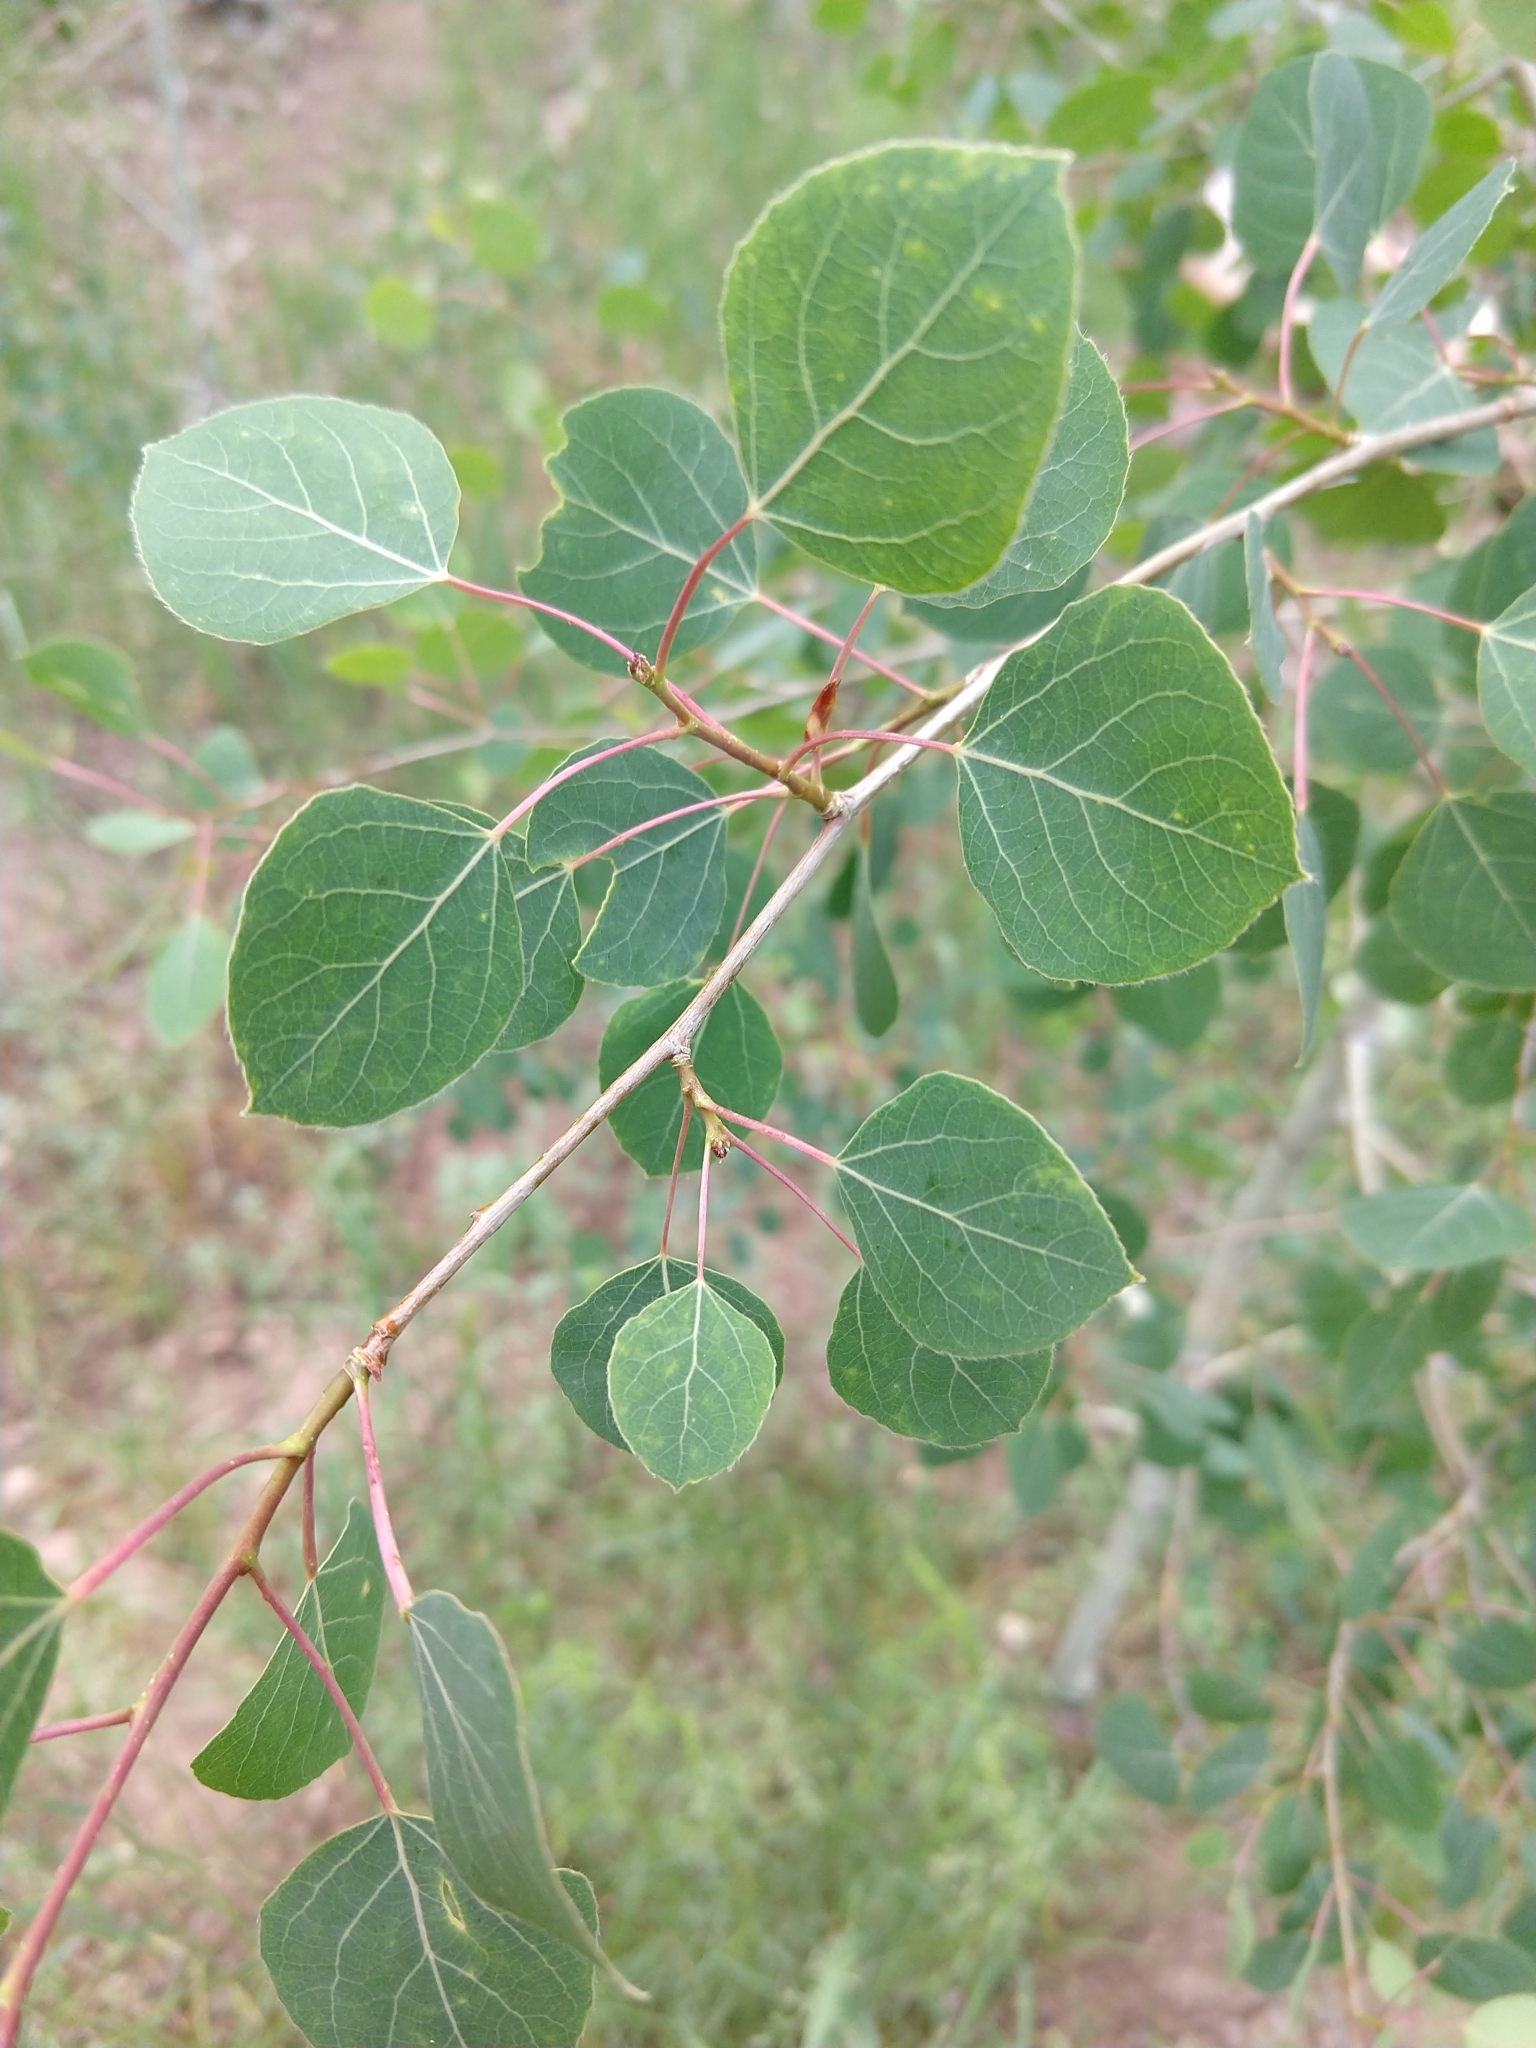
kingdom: Plantae
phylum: Tracheophyta
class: Magnoliopsida
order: Malpighiales
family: Salicaceae
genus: Populus
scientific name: Populus tremuloides
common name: Quaking aspen
